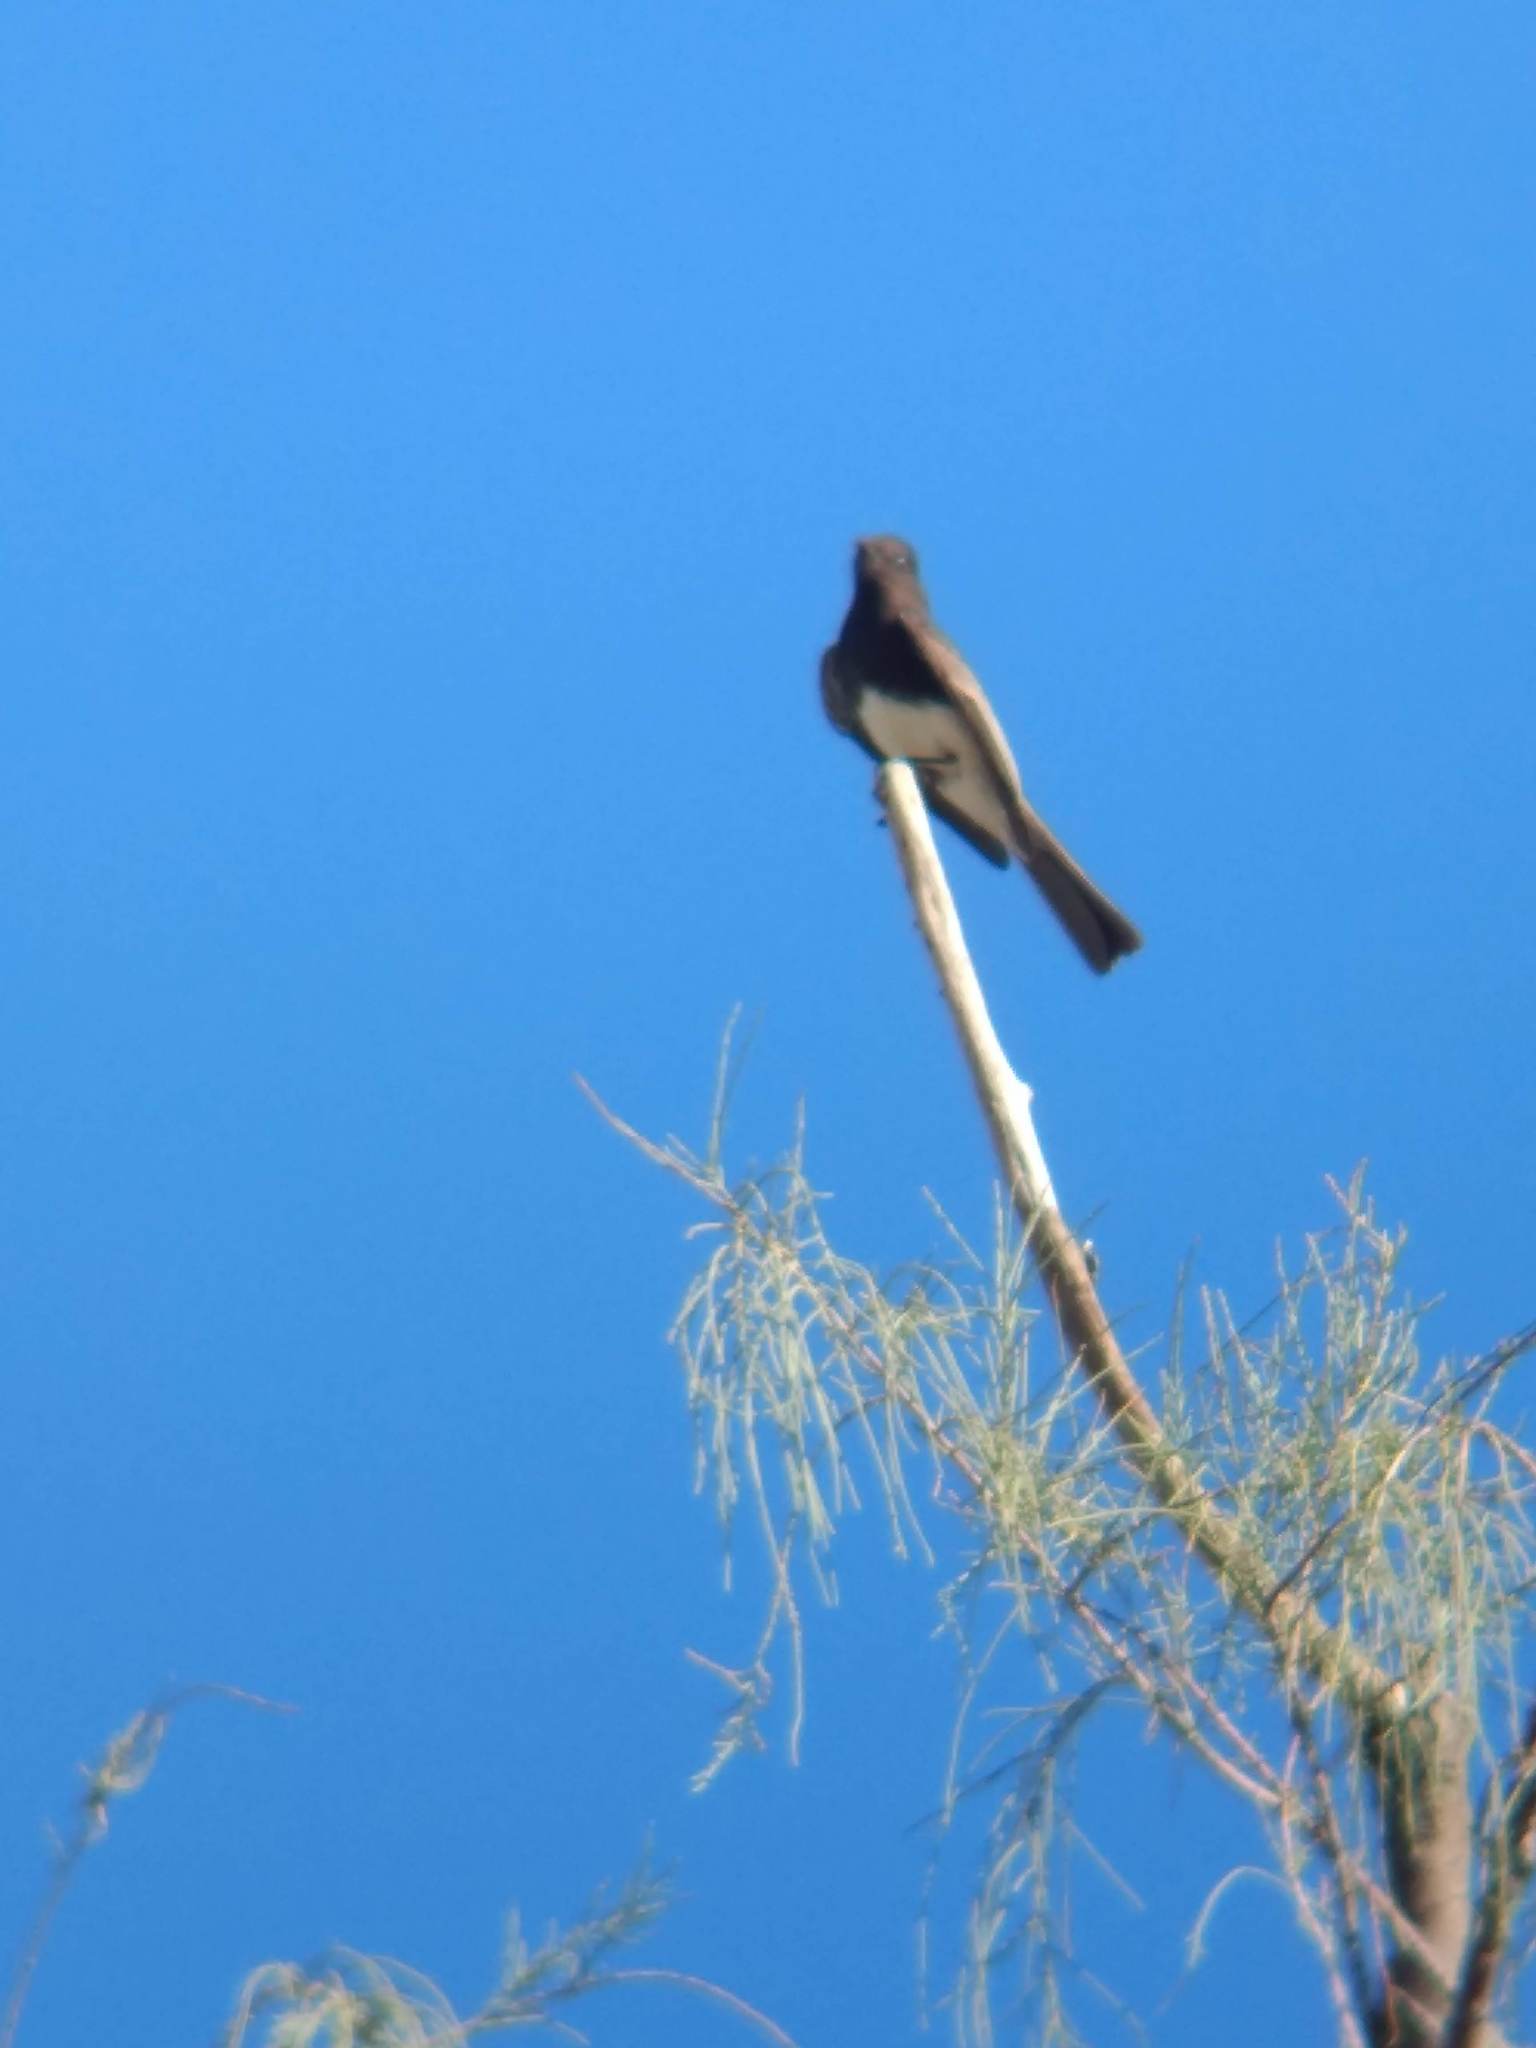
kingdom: Animalia
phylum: Chordata
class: Aves
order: Passeriformes
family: Tyrannidae
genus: Sayornis
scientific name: Sayornis nigricans
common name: Black phoebe
